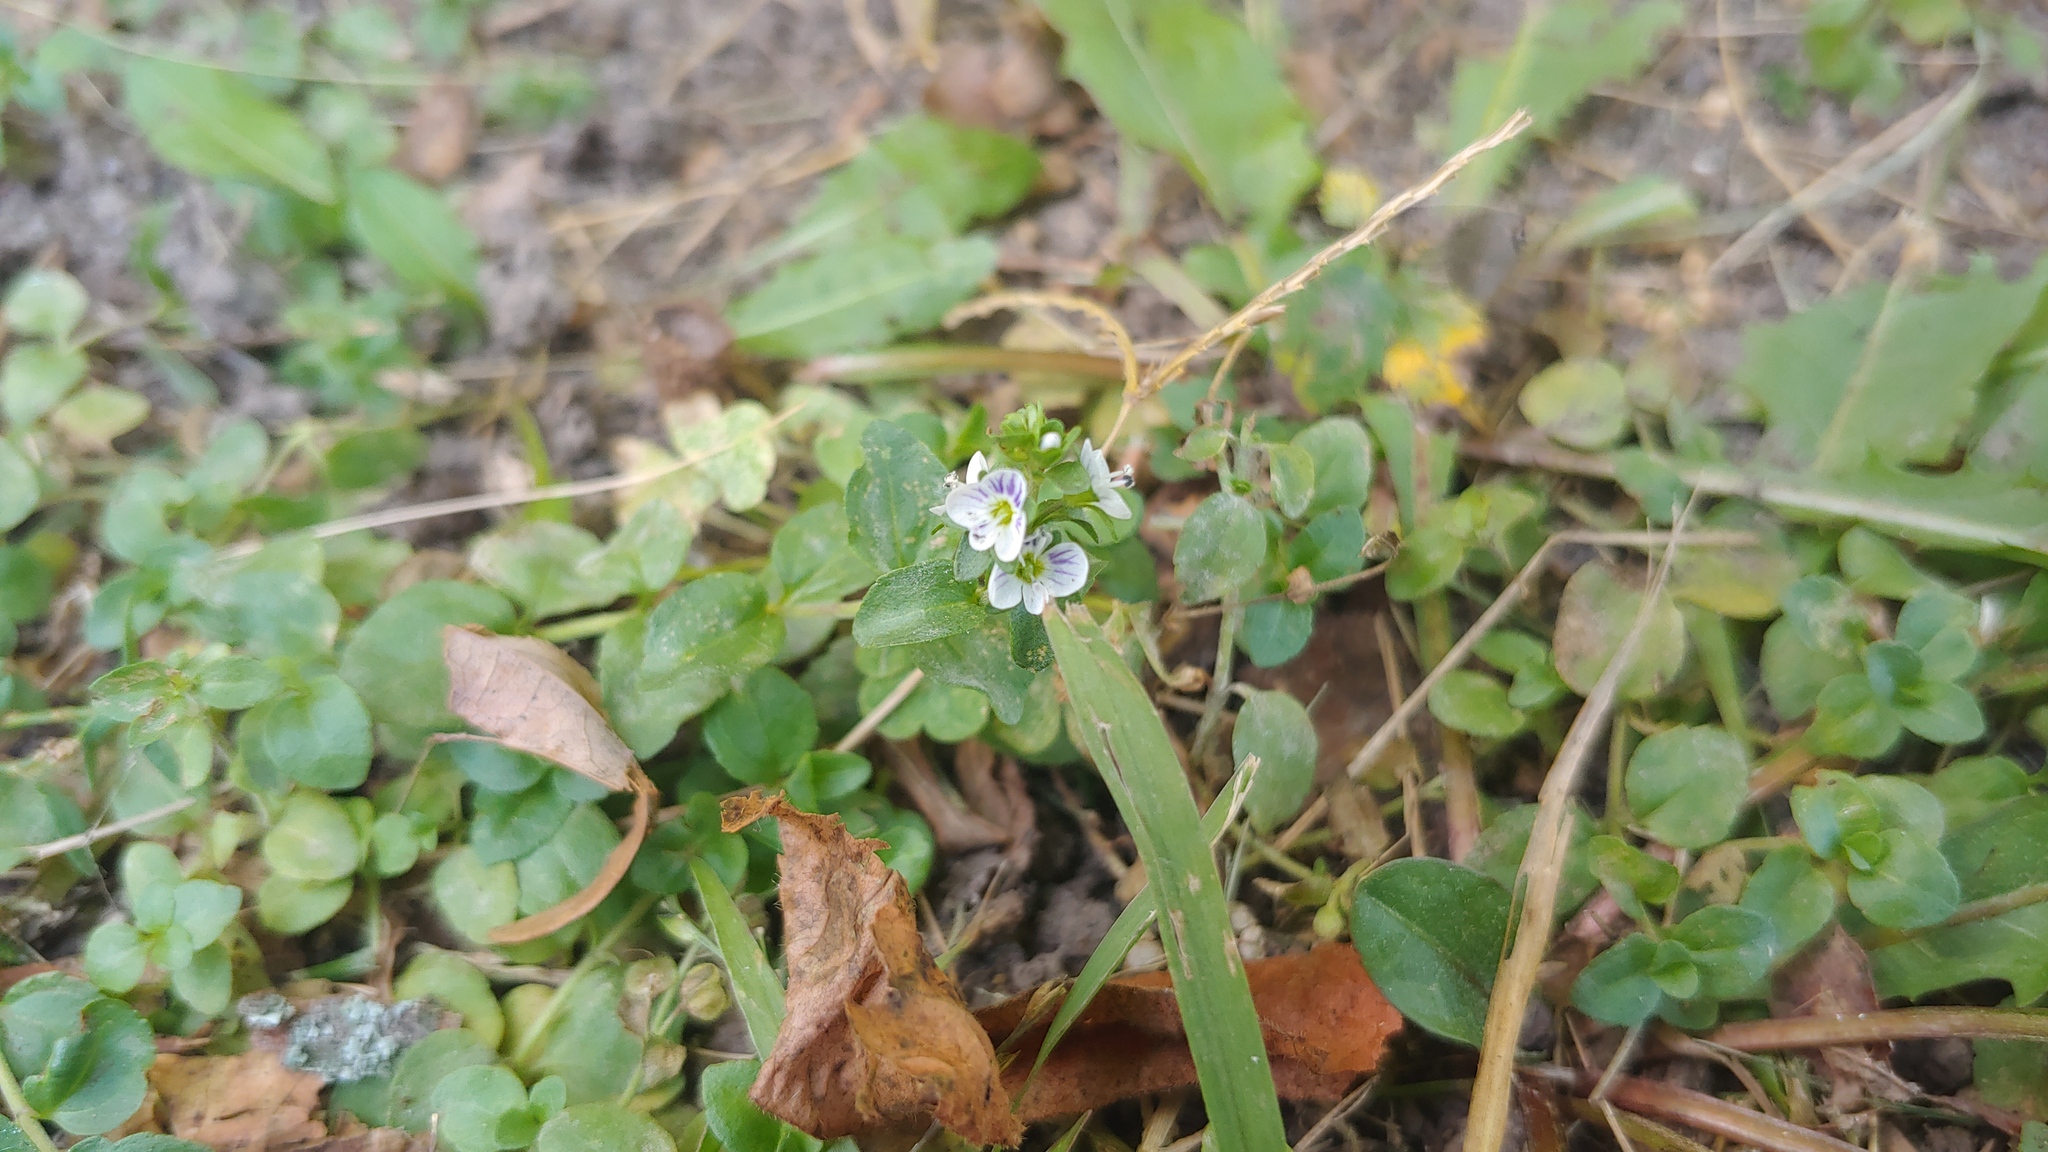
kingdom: Plantae
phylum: Tracheophyta
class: Magnoliopsida
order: Lamiales
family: Plantaginaceae
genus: Veronica
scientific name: Veronica serpyllifolia
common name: Thyme-leaved speedwell
